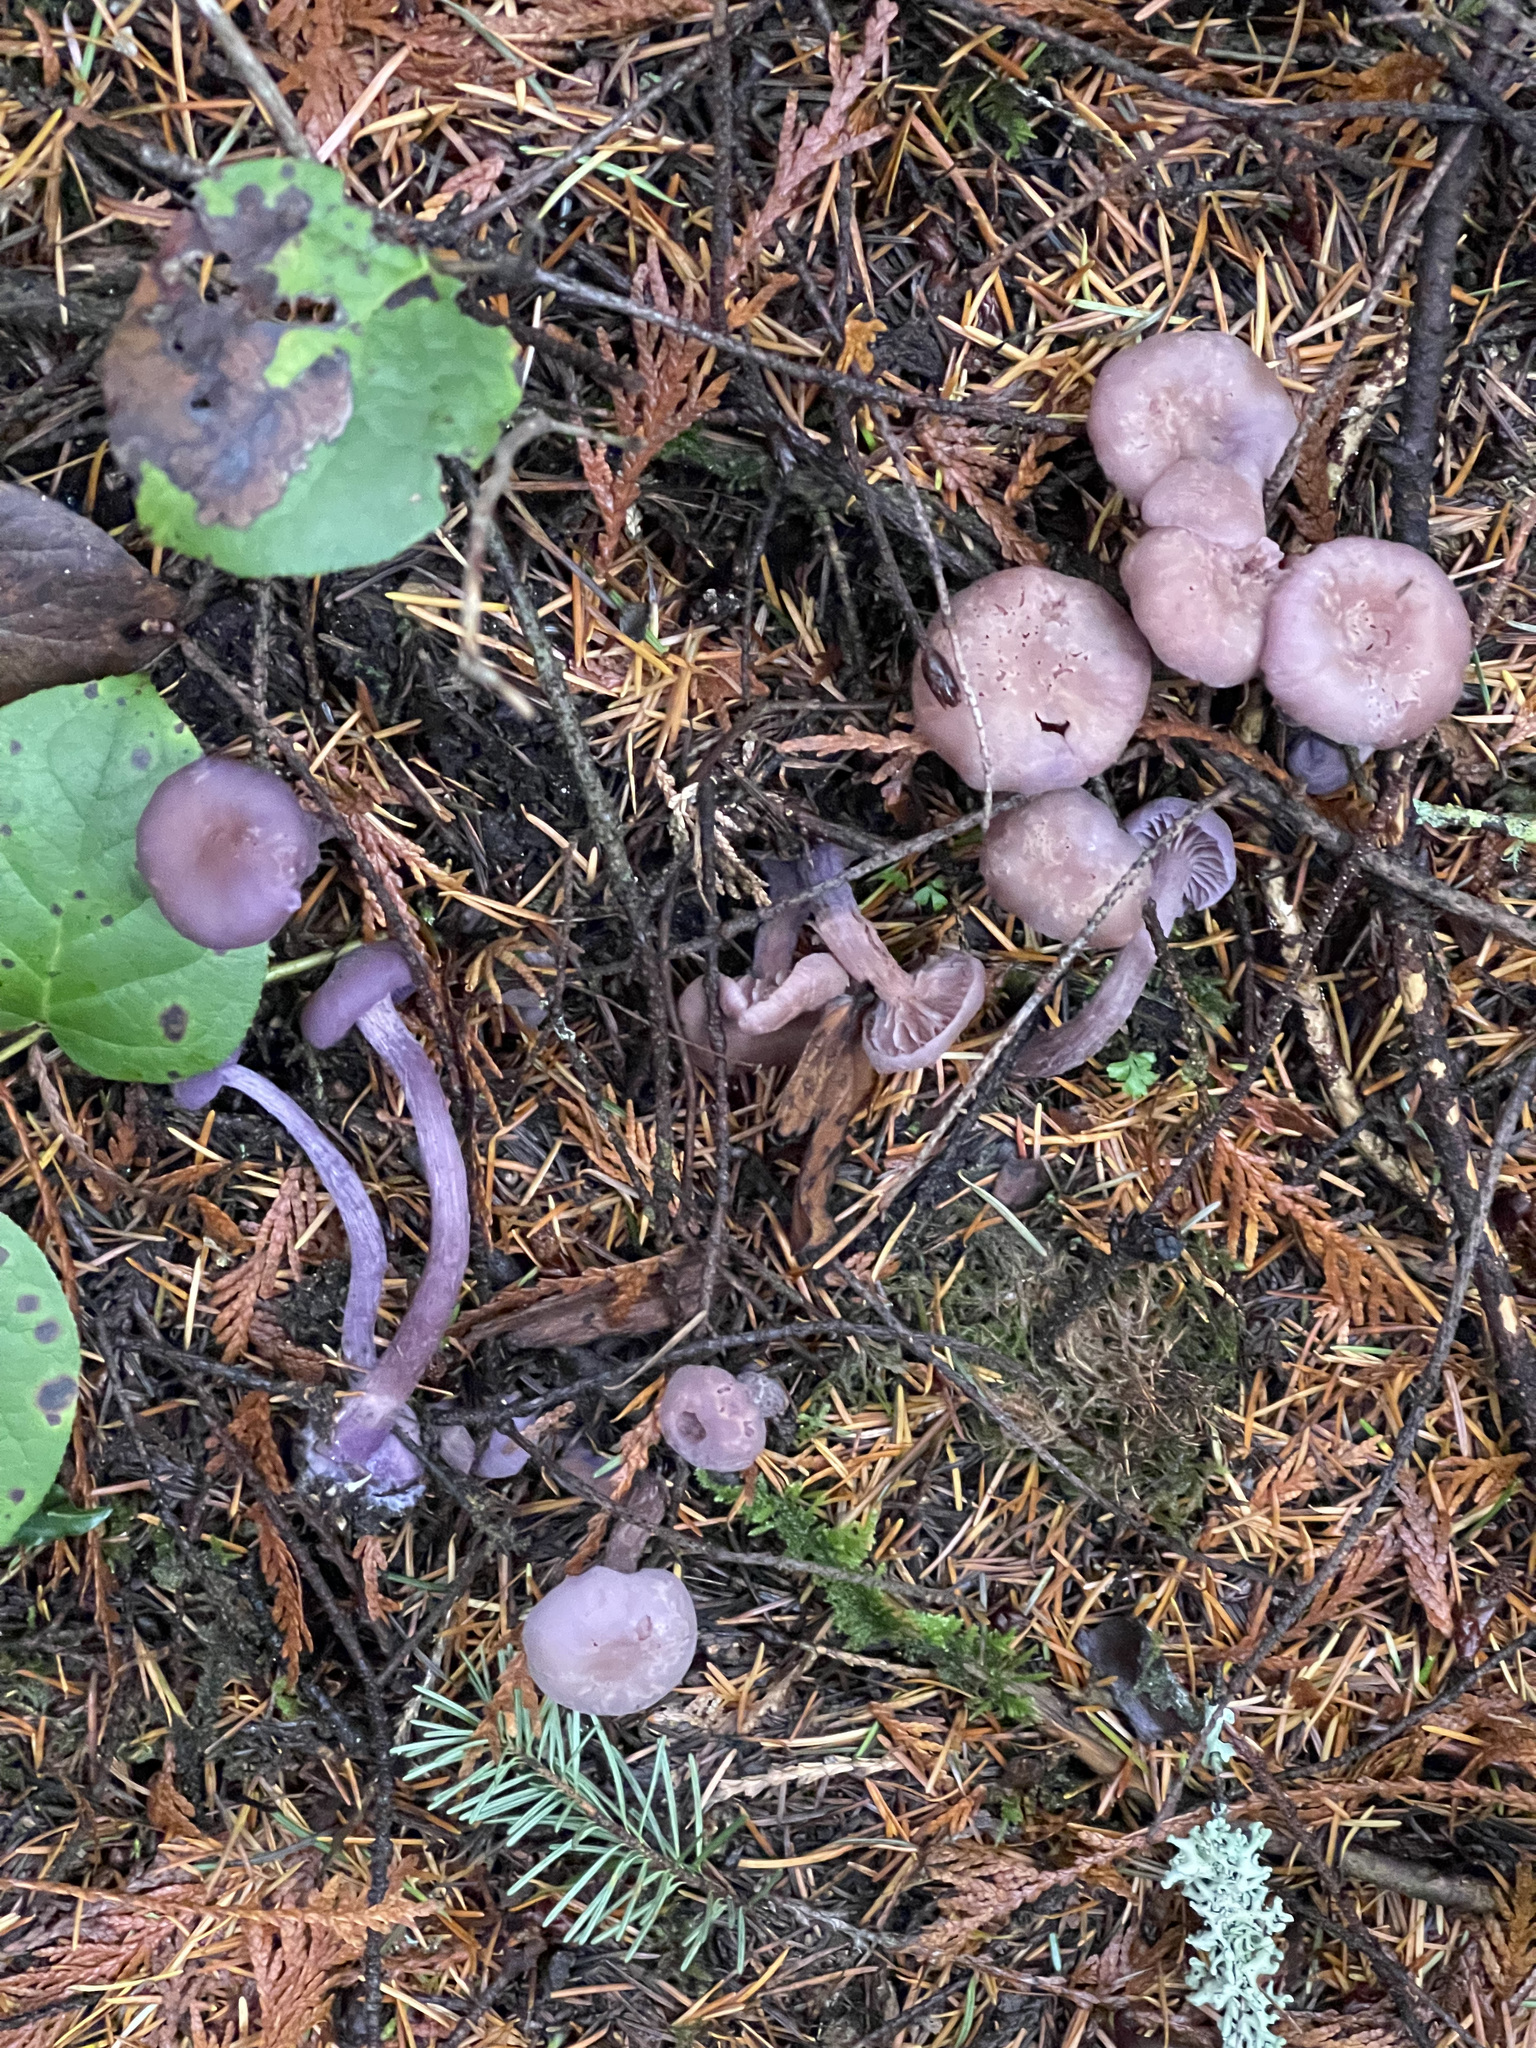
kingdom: Fungi
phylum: Basidiomycota
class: Agaricomycetes
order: Agaricales
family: Hydnangiaceae
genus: Laccaria
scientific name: Laccaria amethysteo-occidentalis
